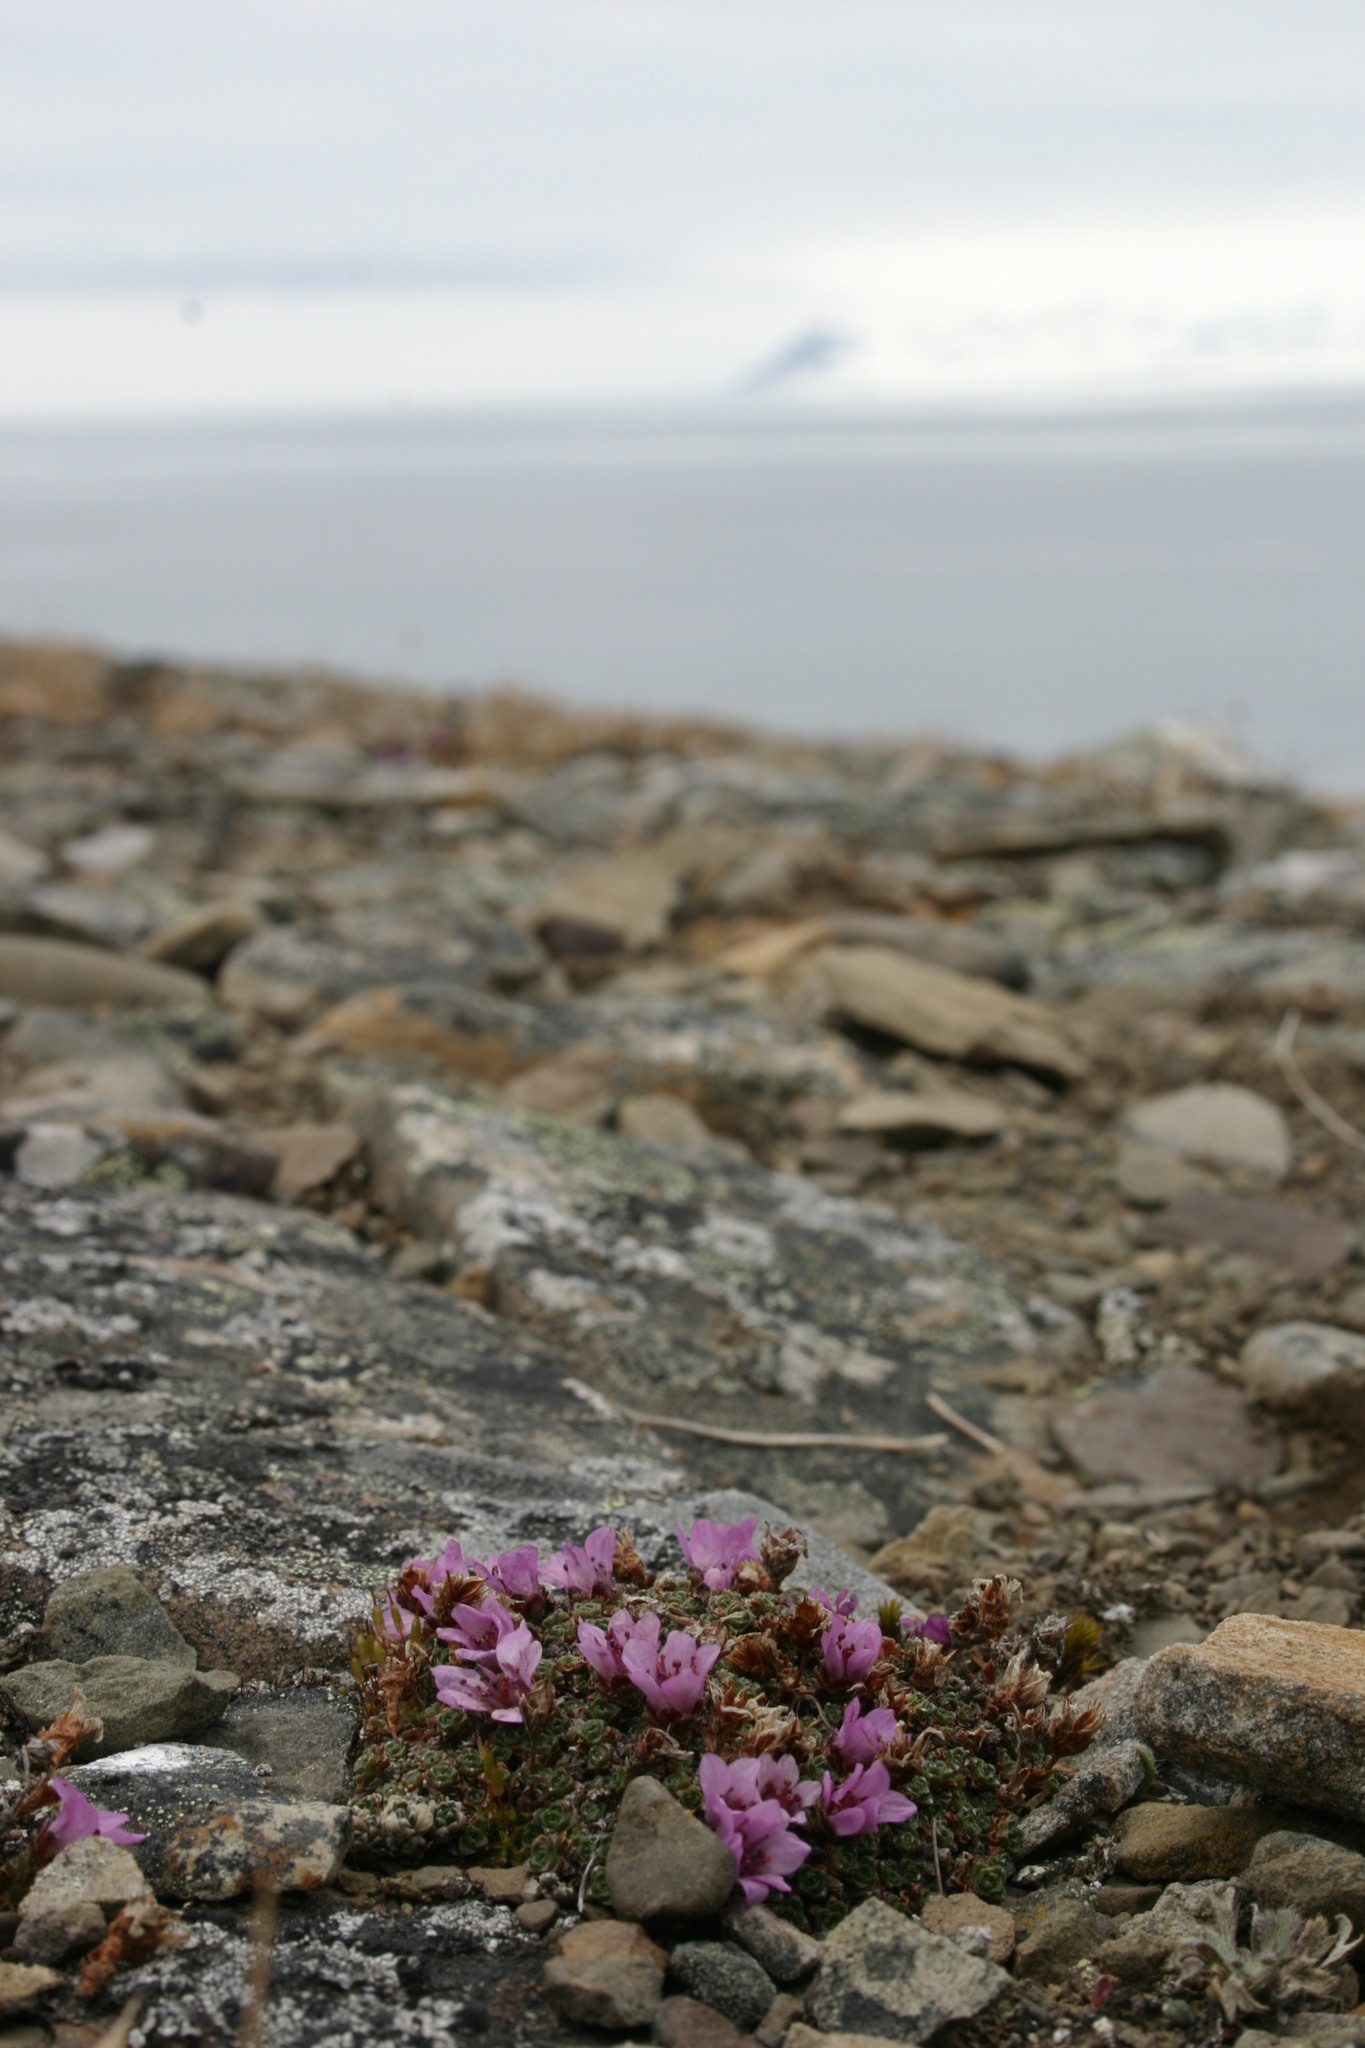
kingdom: Plantae
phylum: Tracheophyta
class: Magnoliopsida
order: Saxifragales
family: Saxifragaceae
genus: Saxifraga
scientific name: Saxifraga oppositifolia
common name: Purple saxifrage
